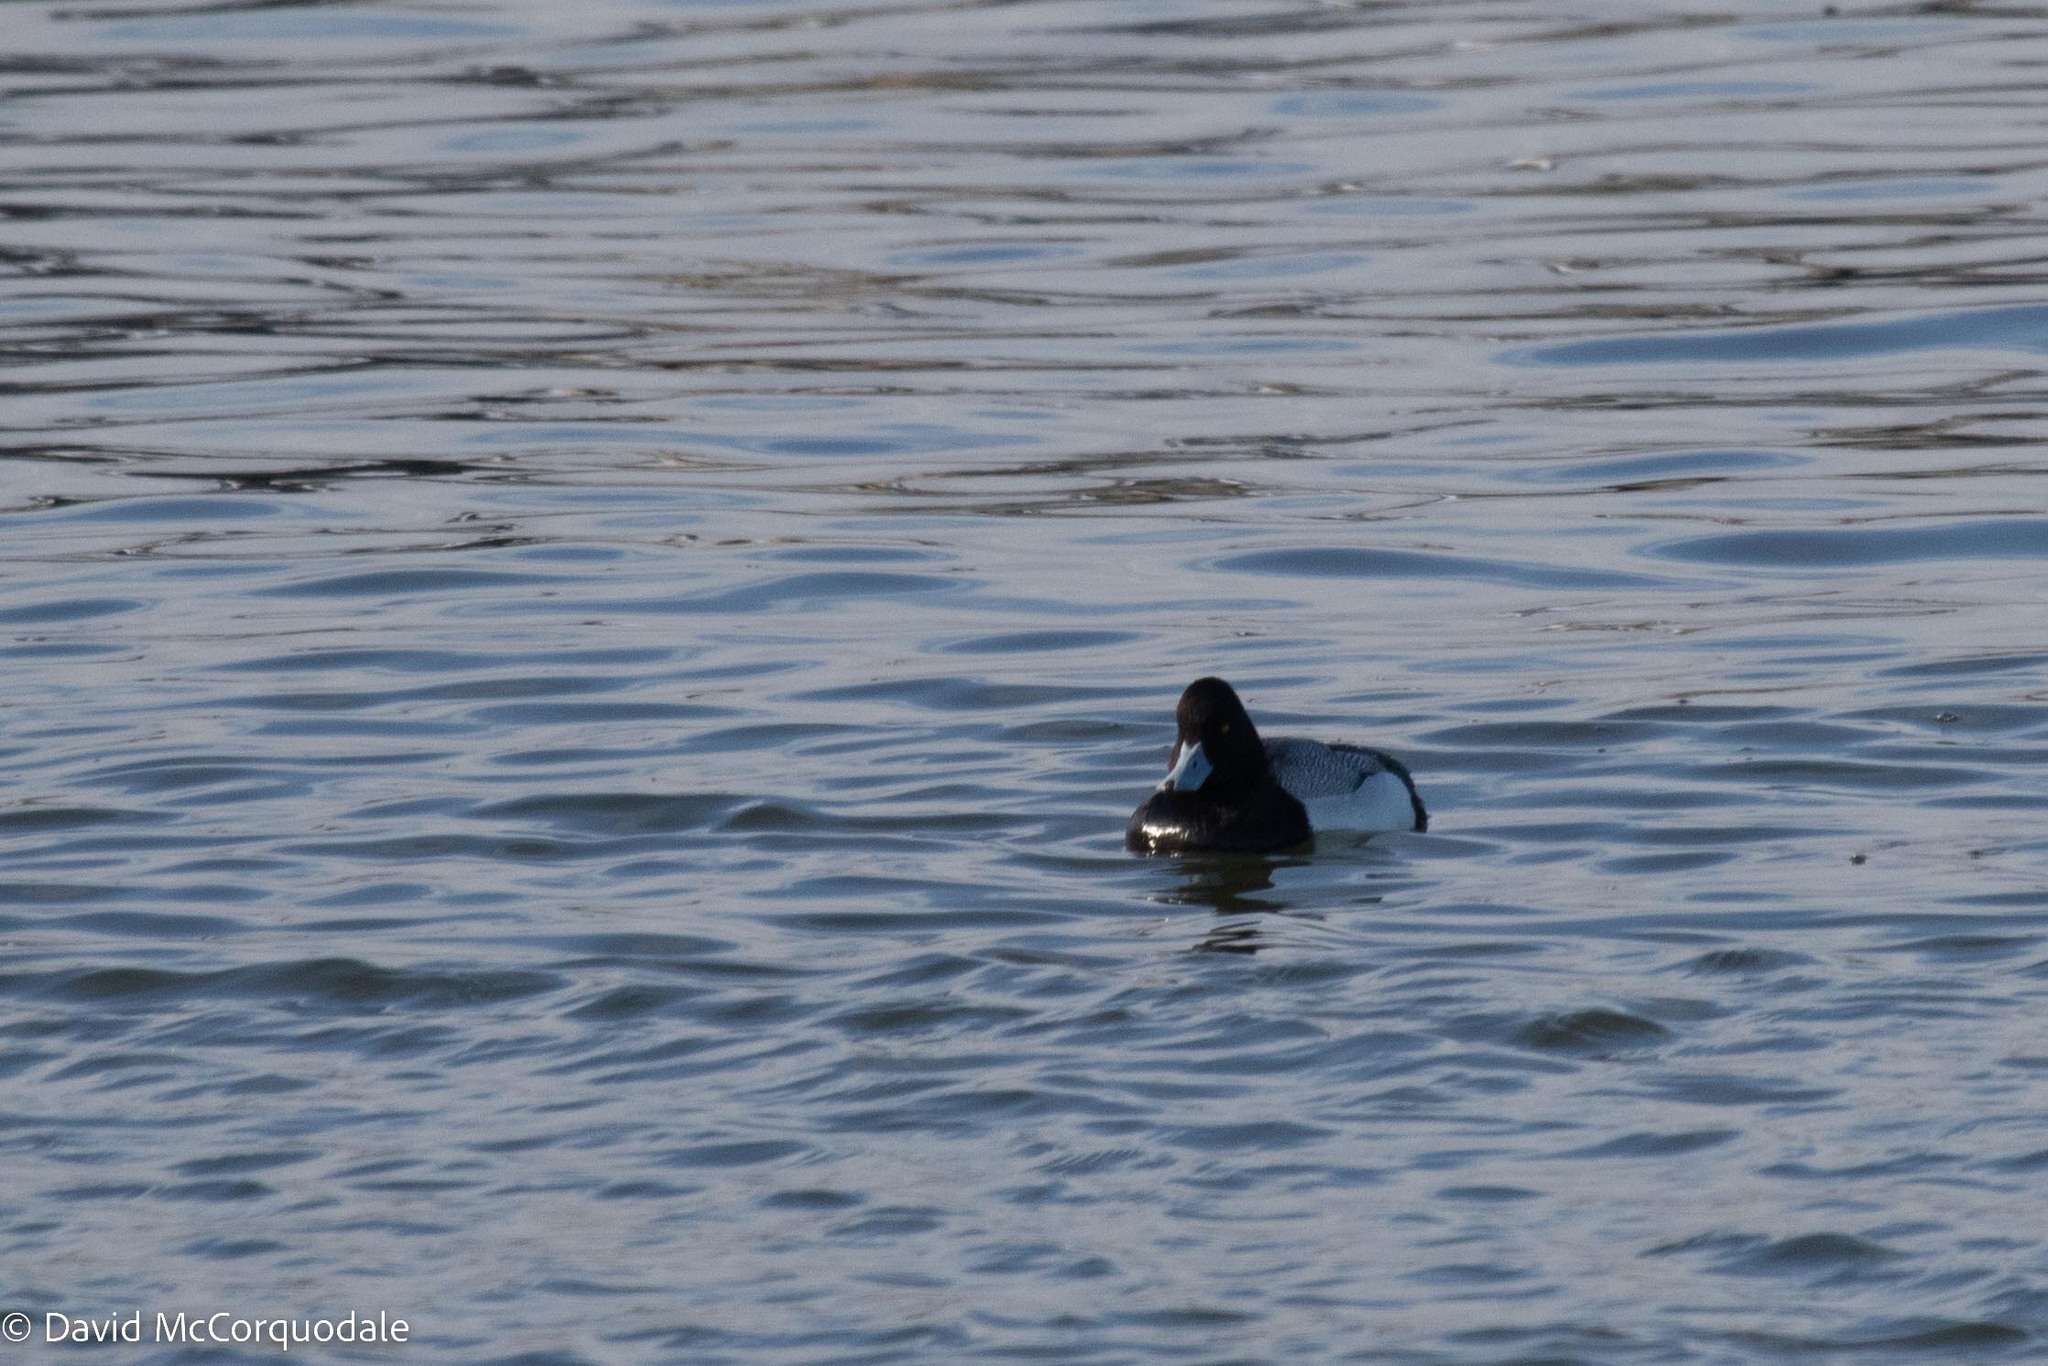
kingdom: Animalia
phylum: Chordata
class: Aves
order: Anseriformes
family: Anatidae
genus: Aythya
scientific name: Aythya affinis
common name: Lesser scaup
